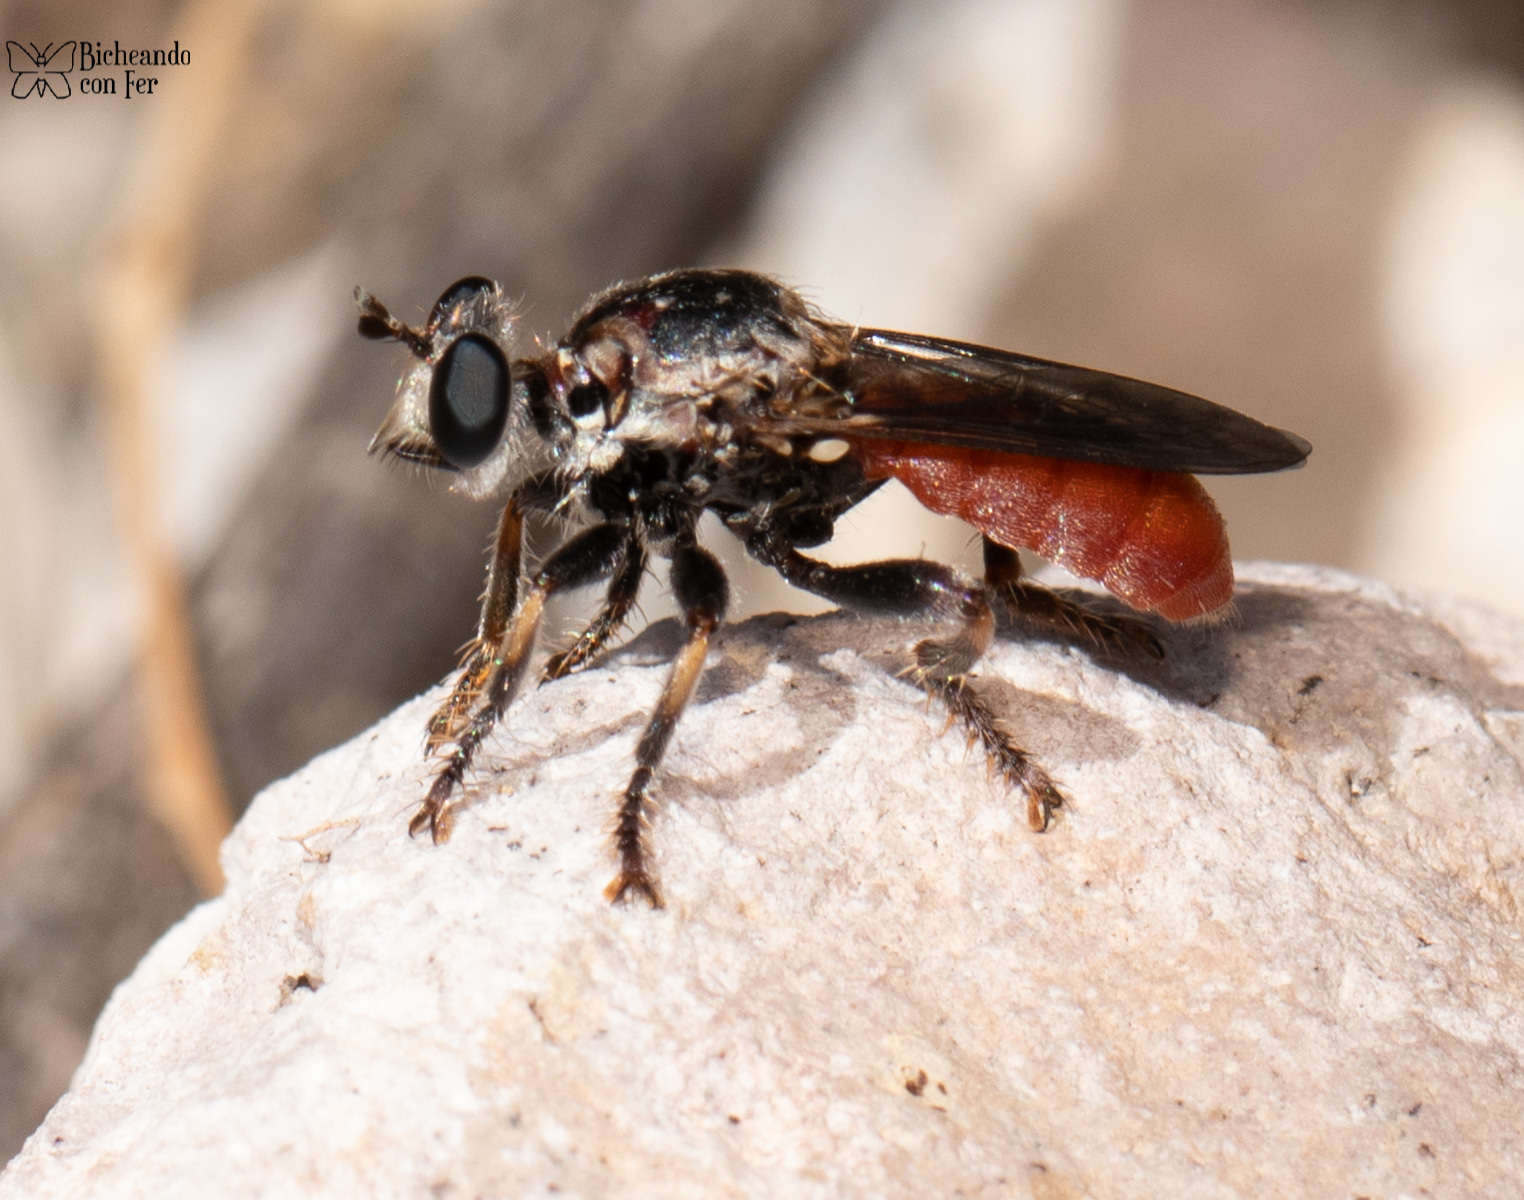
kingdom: Animalia
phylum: Arthropoda
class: Insecta
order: Diptera
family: Asilidae
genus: Cerotainiops
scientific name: Cerotainiops omus
